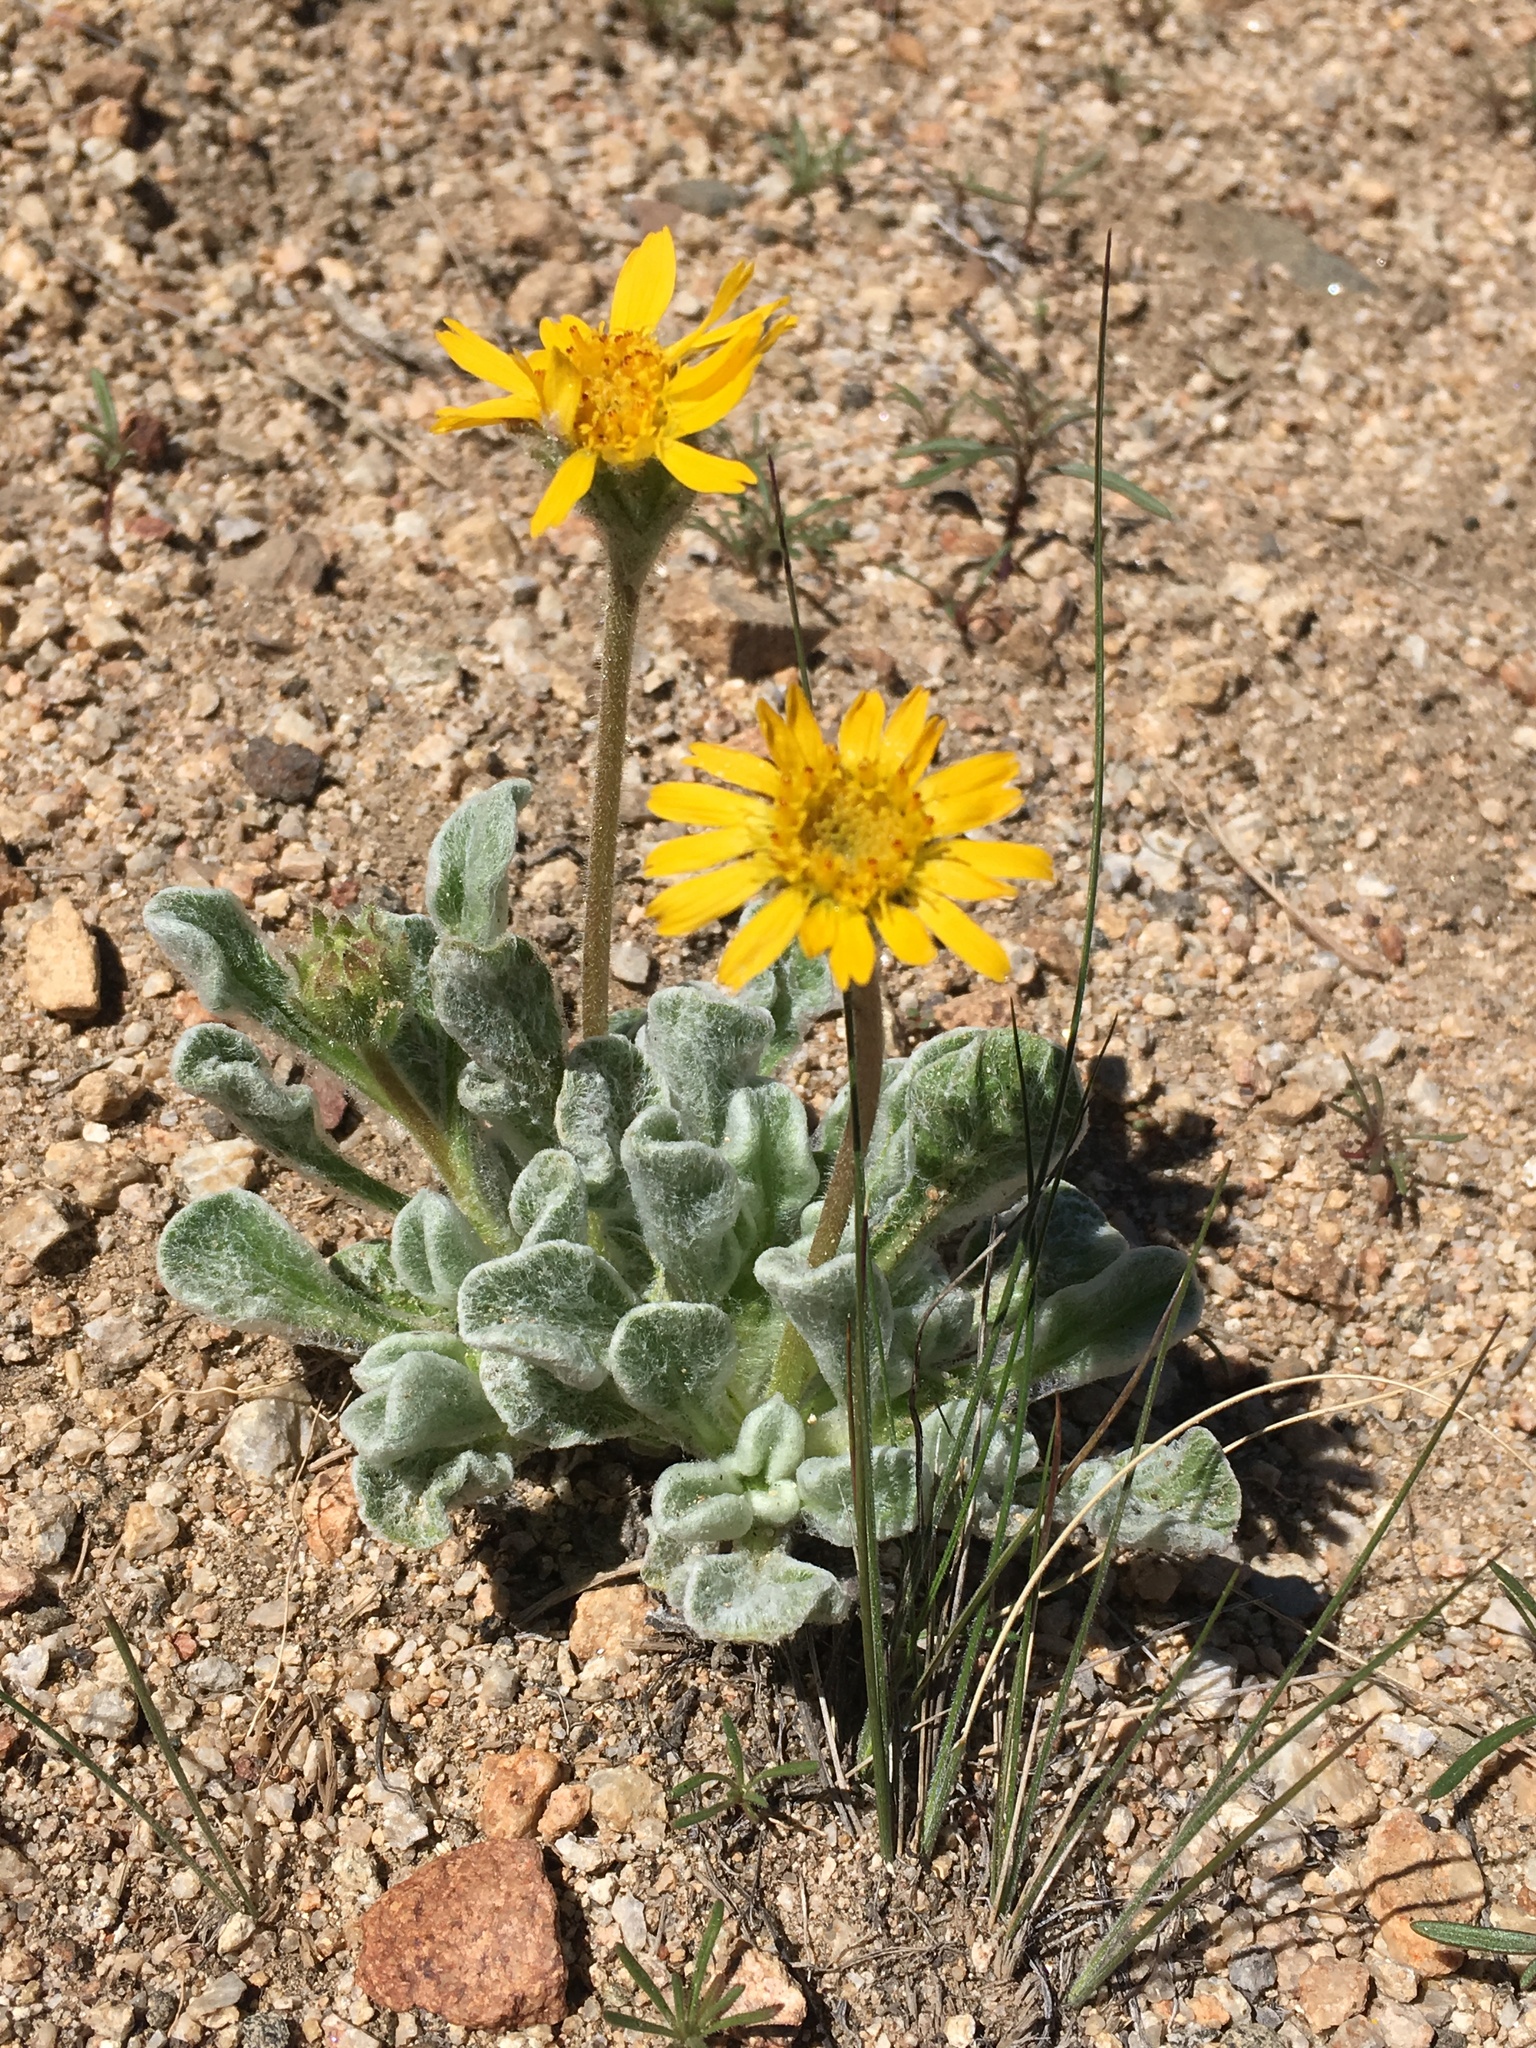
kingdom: Plantae
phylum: Tracheophyta
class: Magnoliopsida
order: Asterales
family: Asteraceae
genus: Hulsea
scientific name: Hulsea vestita
